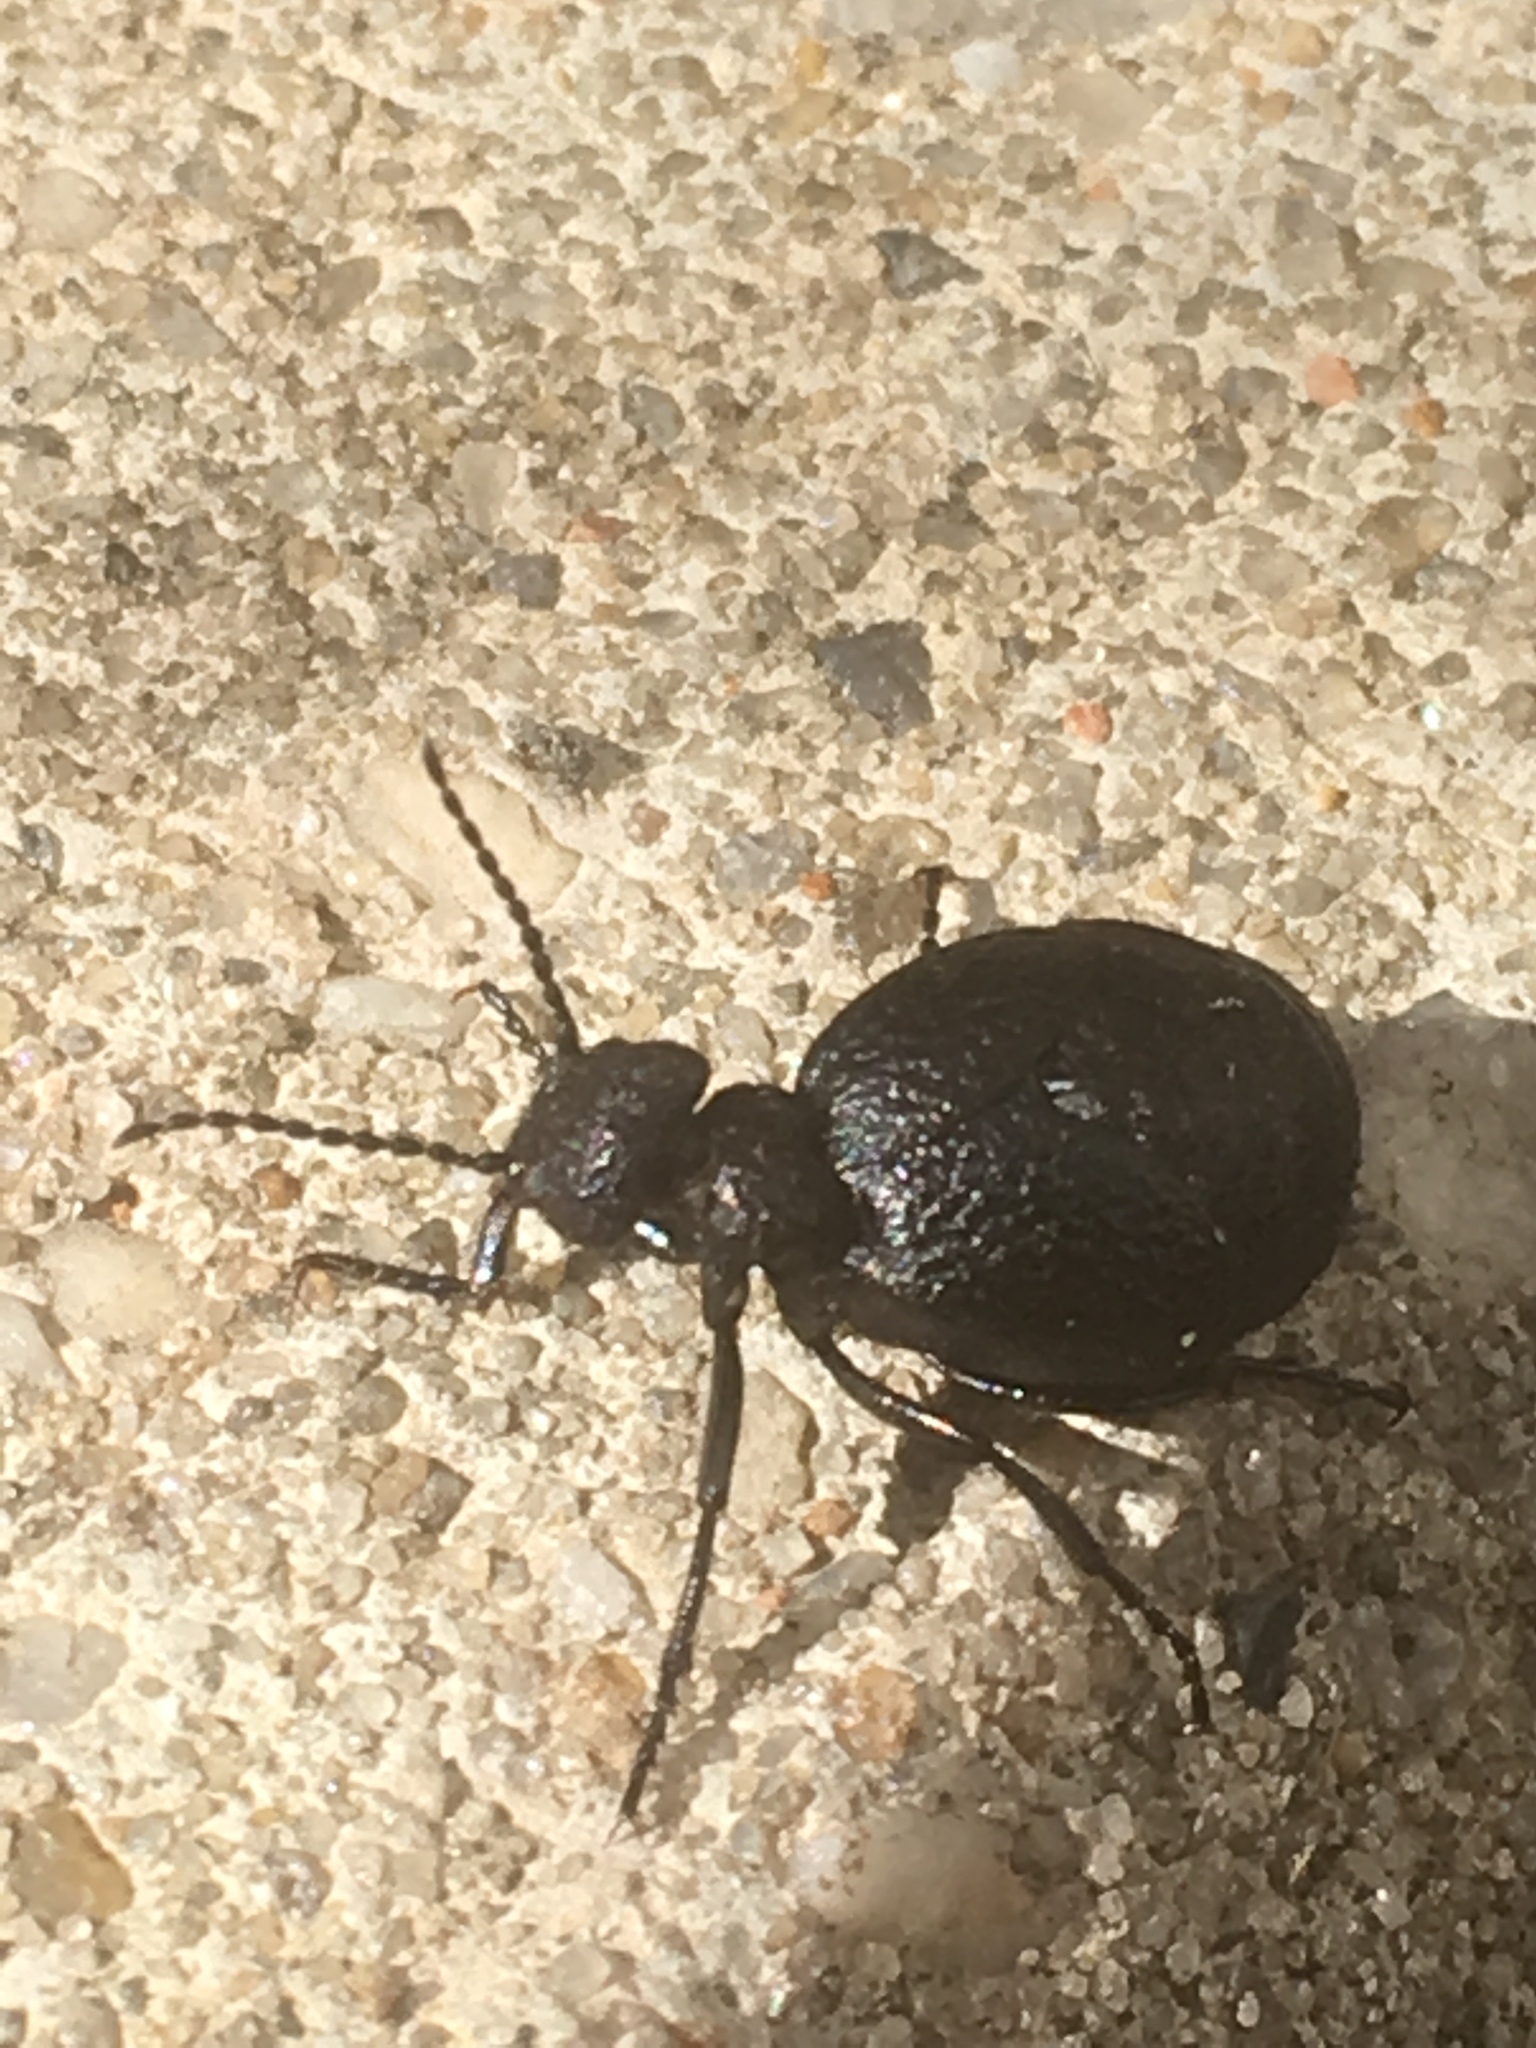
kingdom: Animalia
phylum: Arthropoda
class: Insecta
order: Coleoptera
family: Meloidae
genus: Meloe
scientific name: Meloe rugosus
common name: Rugged oil-beetle
